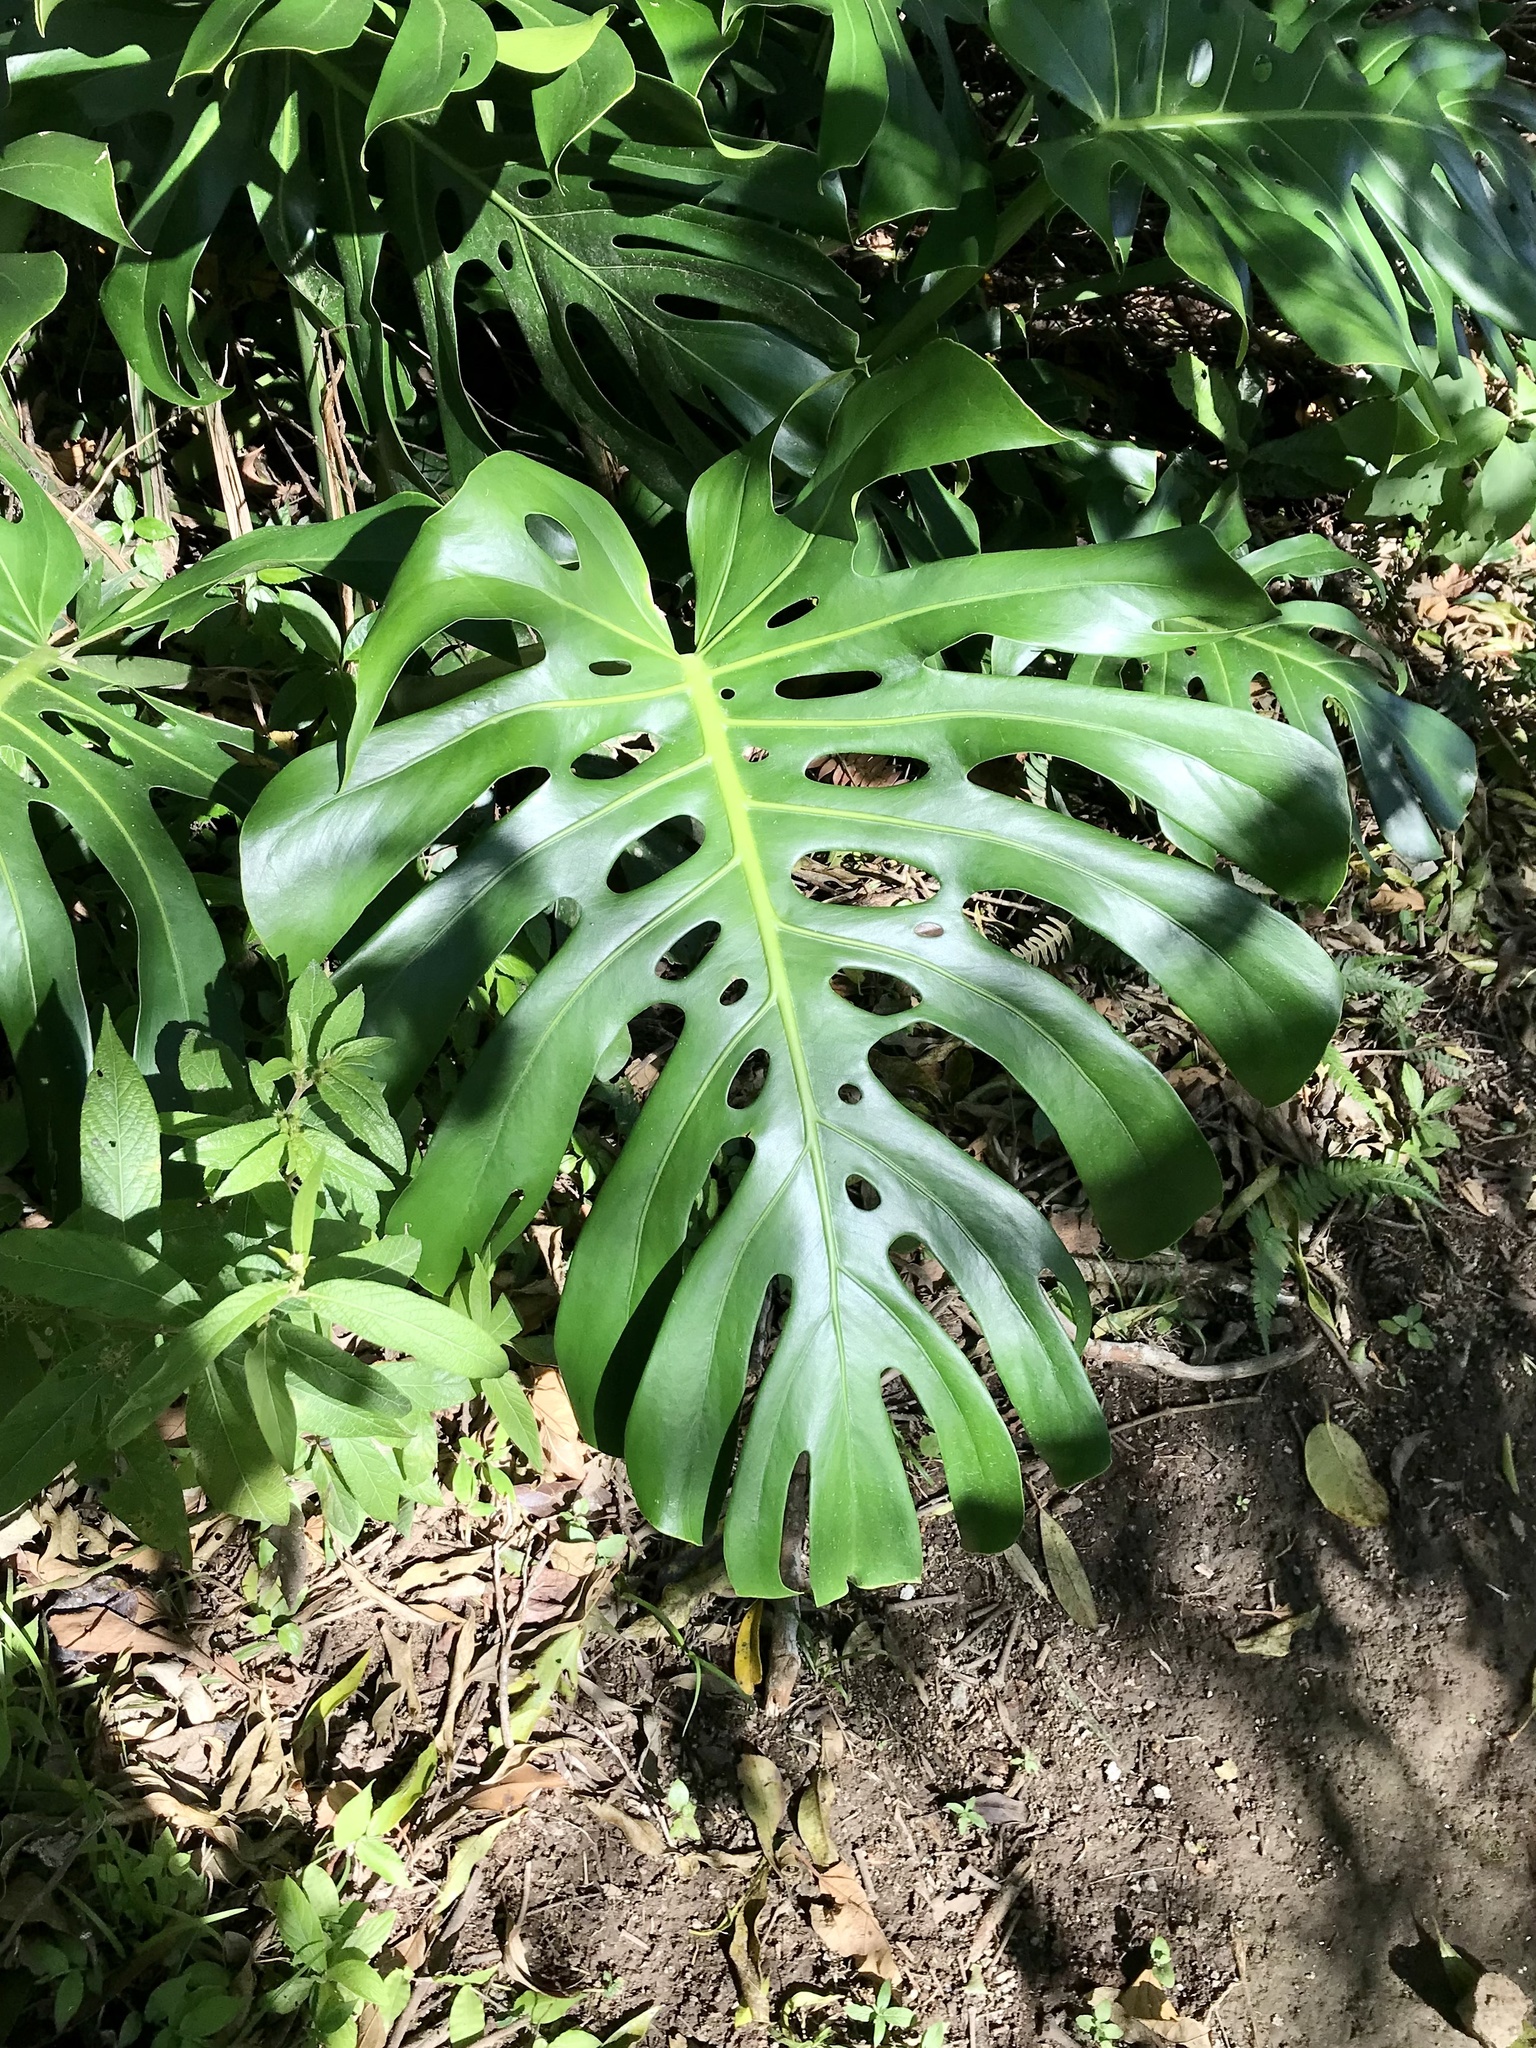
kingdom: Plantae
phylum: Tracheophyta
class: Liliopsida
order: Alismatales
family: Araceae
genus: Monstera
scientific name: Monstera deliciosa
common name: Cut-leaf-philodendron
